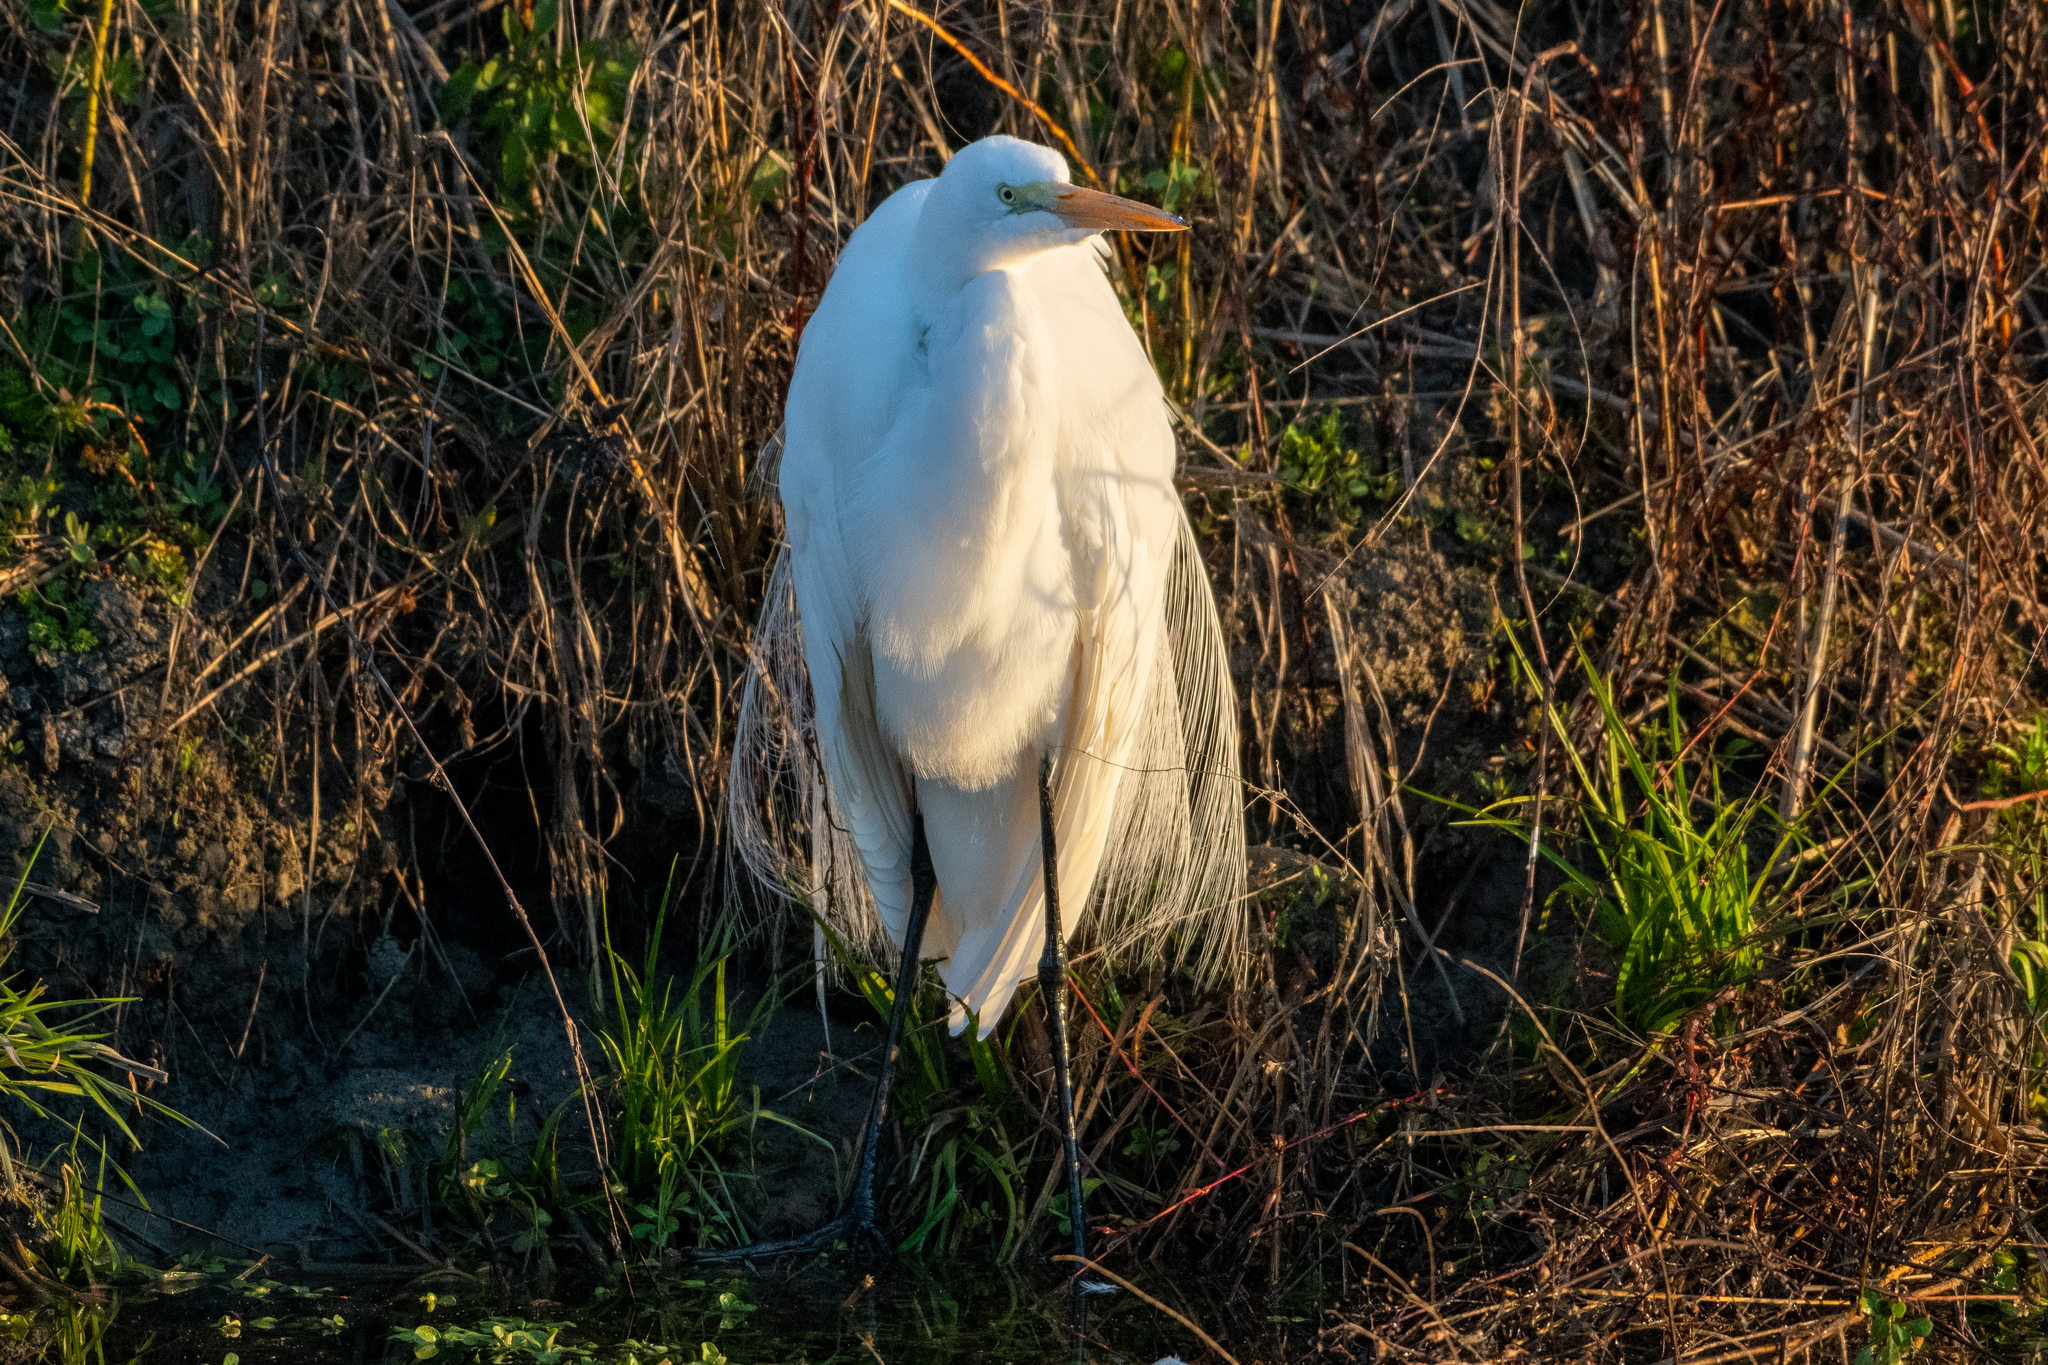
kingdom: Animalia
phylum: Chordata
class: Aves
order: Pelecaniformes
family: Ardeidae
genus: Ardea
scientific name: Ardea alba
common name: Great egret
